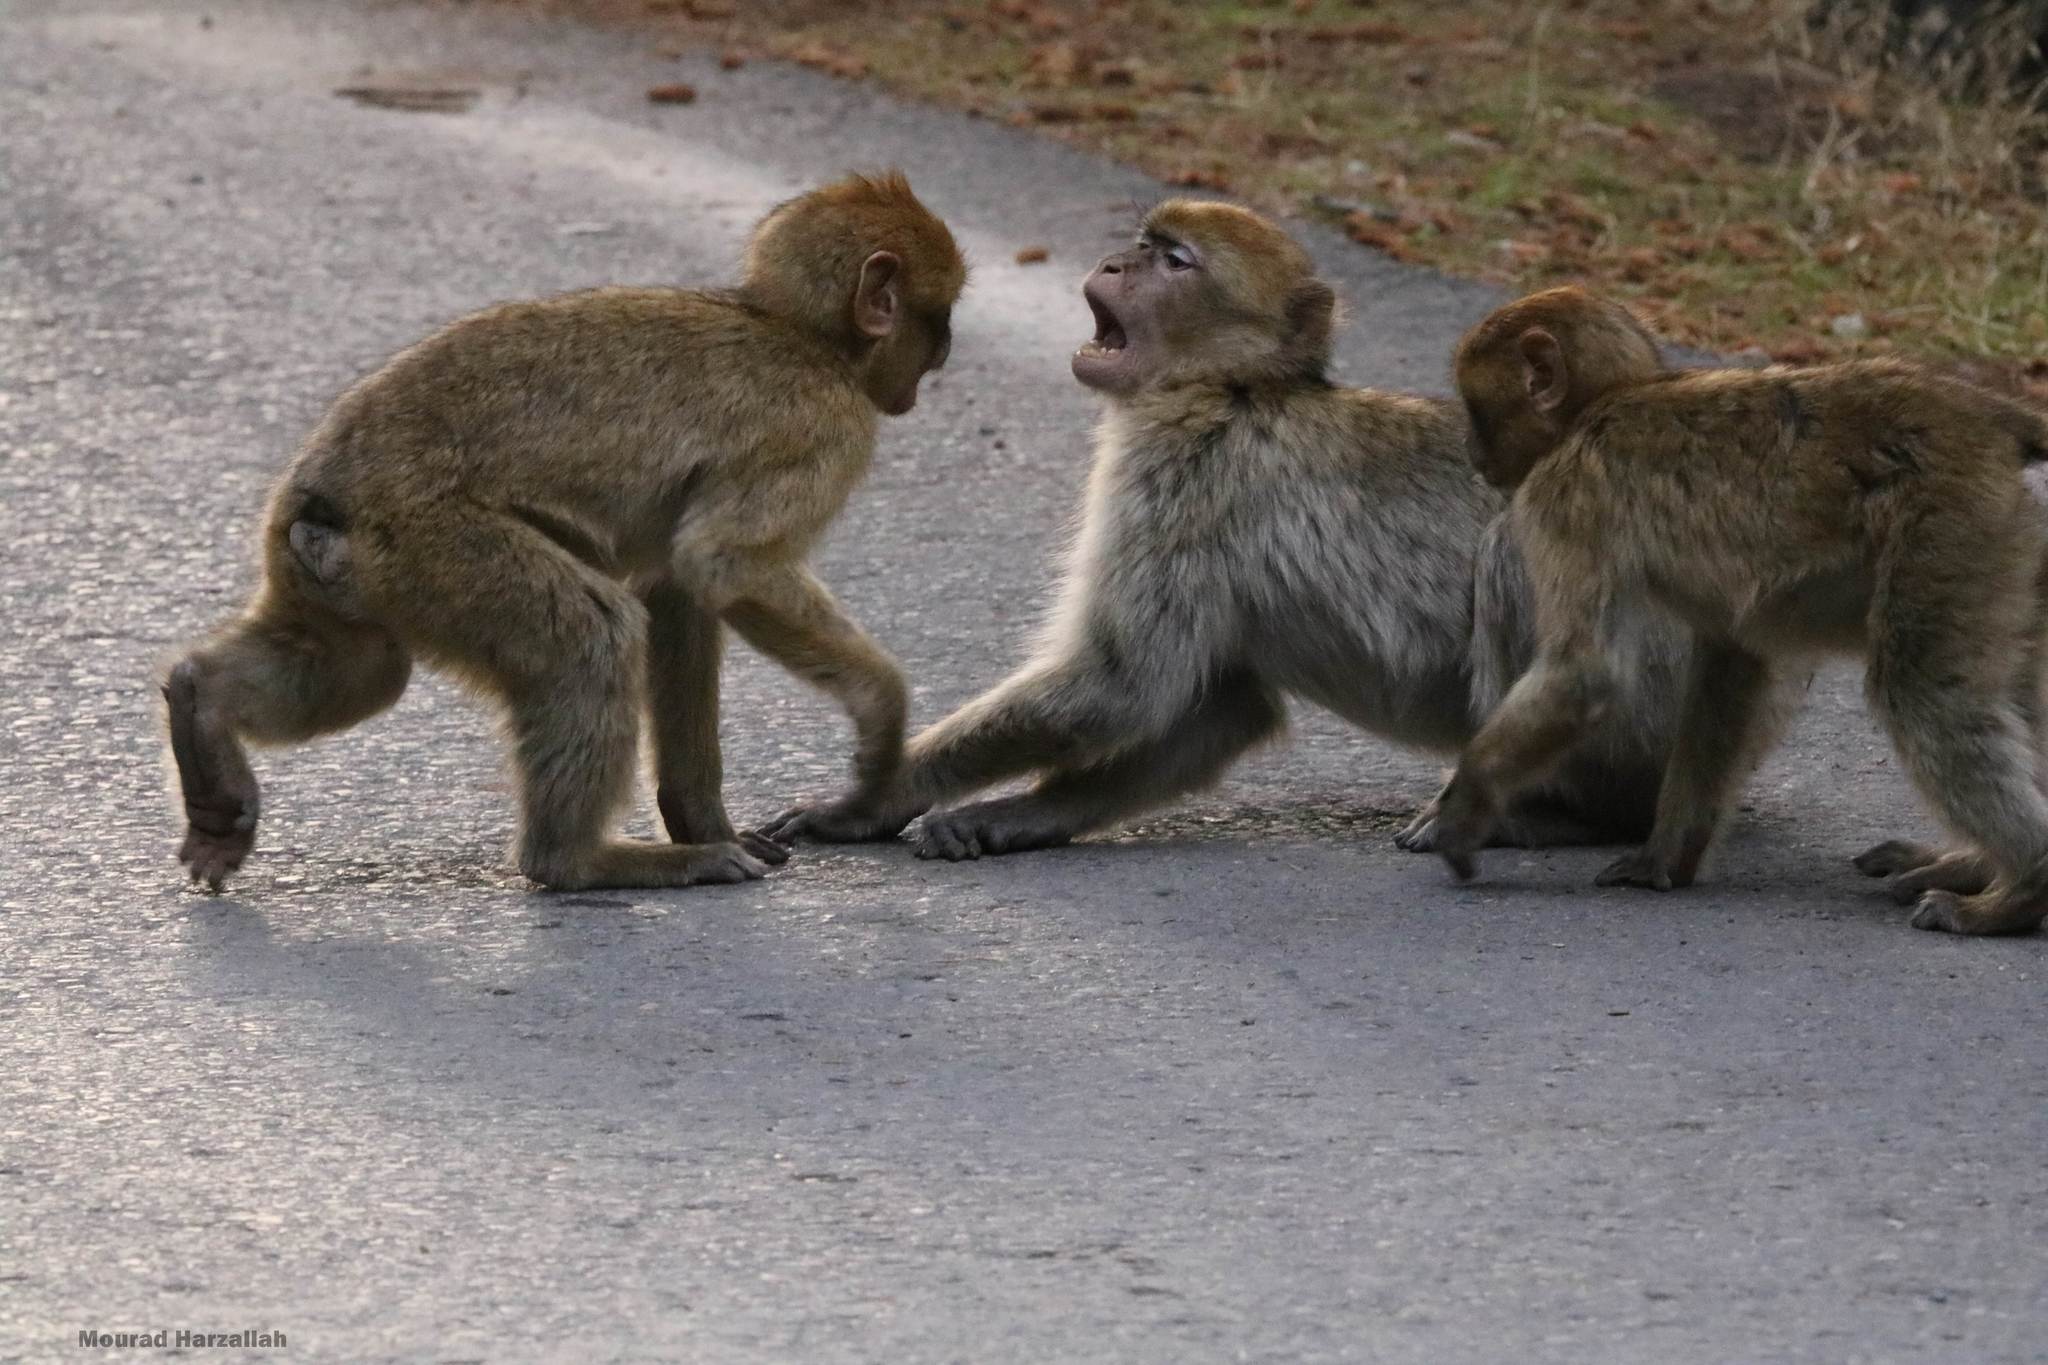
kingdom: Animalia
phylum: Chordata
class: Mammalia
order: Primates
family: Cercopithecidae
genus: Macaca
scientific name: Macaca sylvanus
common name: Barbary macaque
